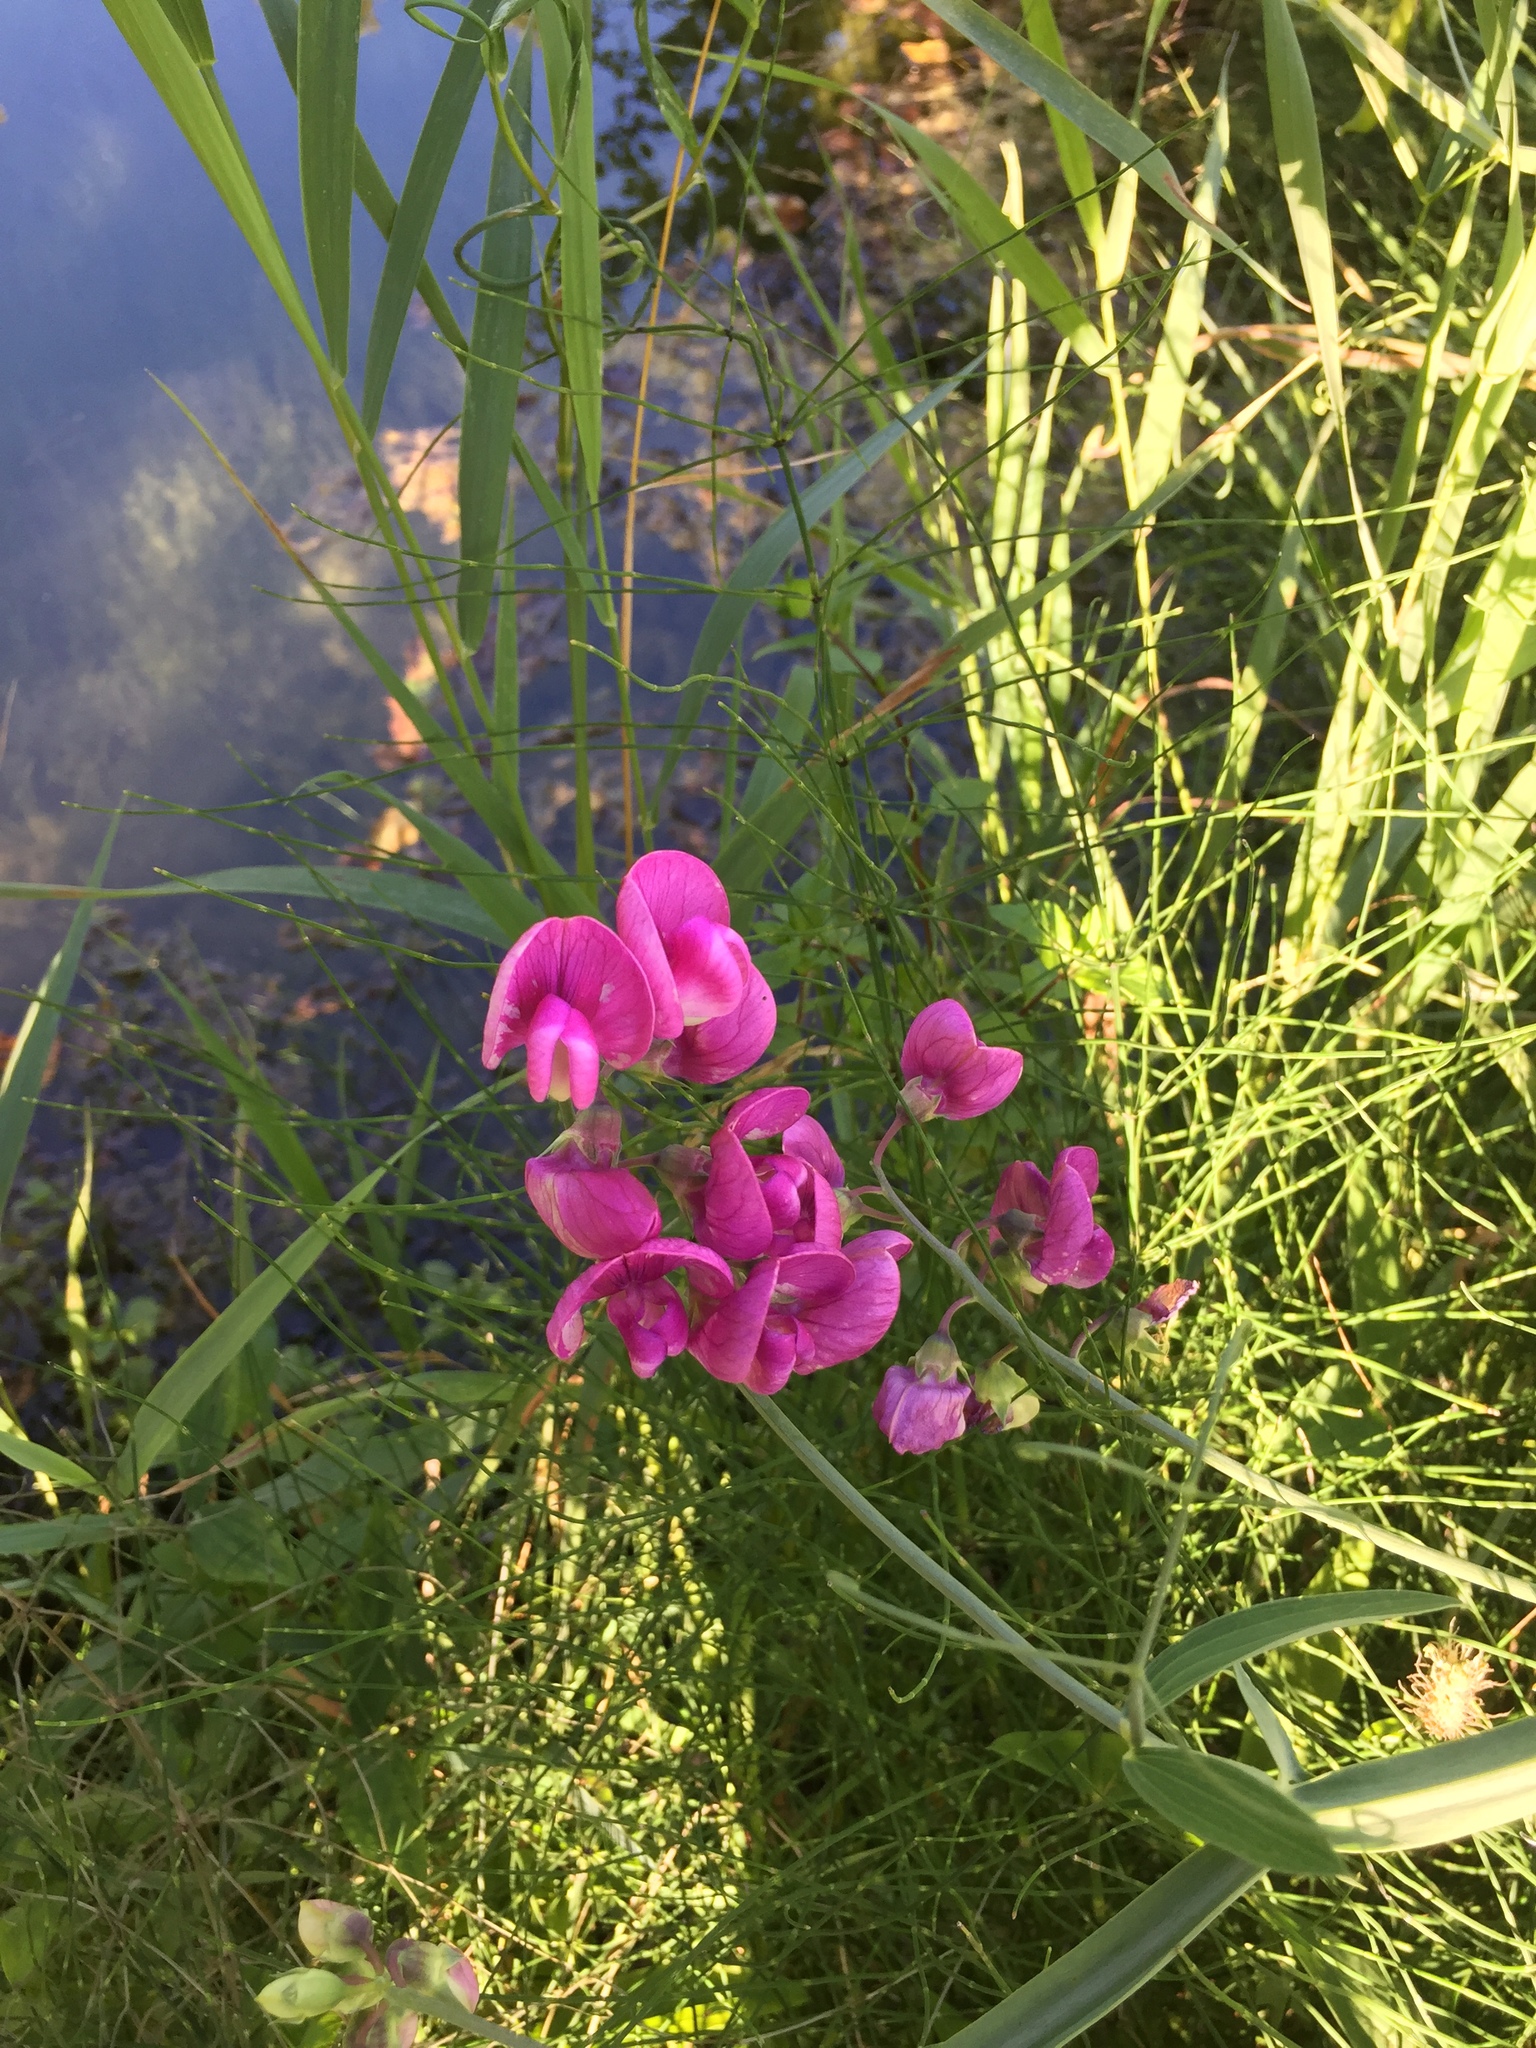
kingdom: Plantae
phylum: Tracheophyta
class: Magnoliopsida
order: Fabales
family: Fabaceae
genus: Lathyrus
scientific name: Lathyrus latifolius
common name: Perennial pea
